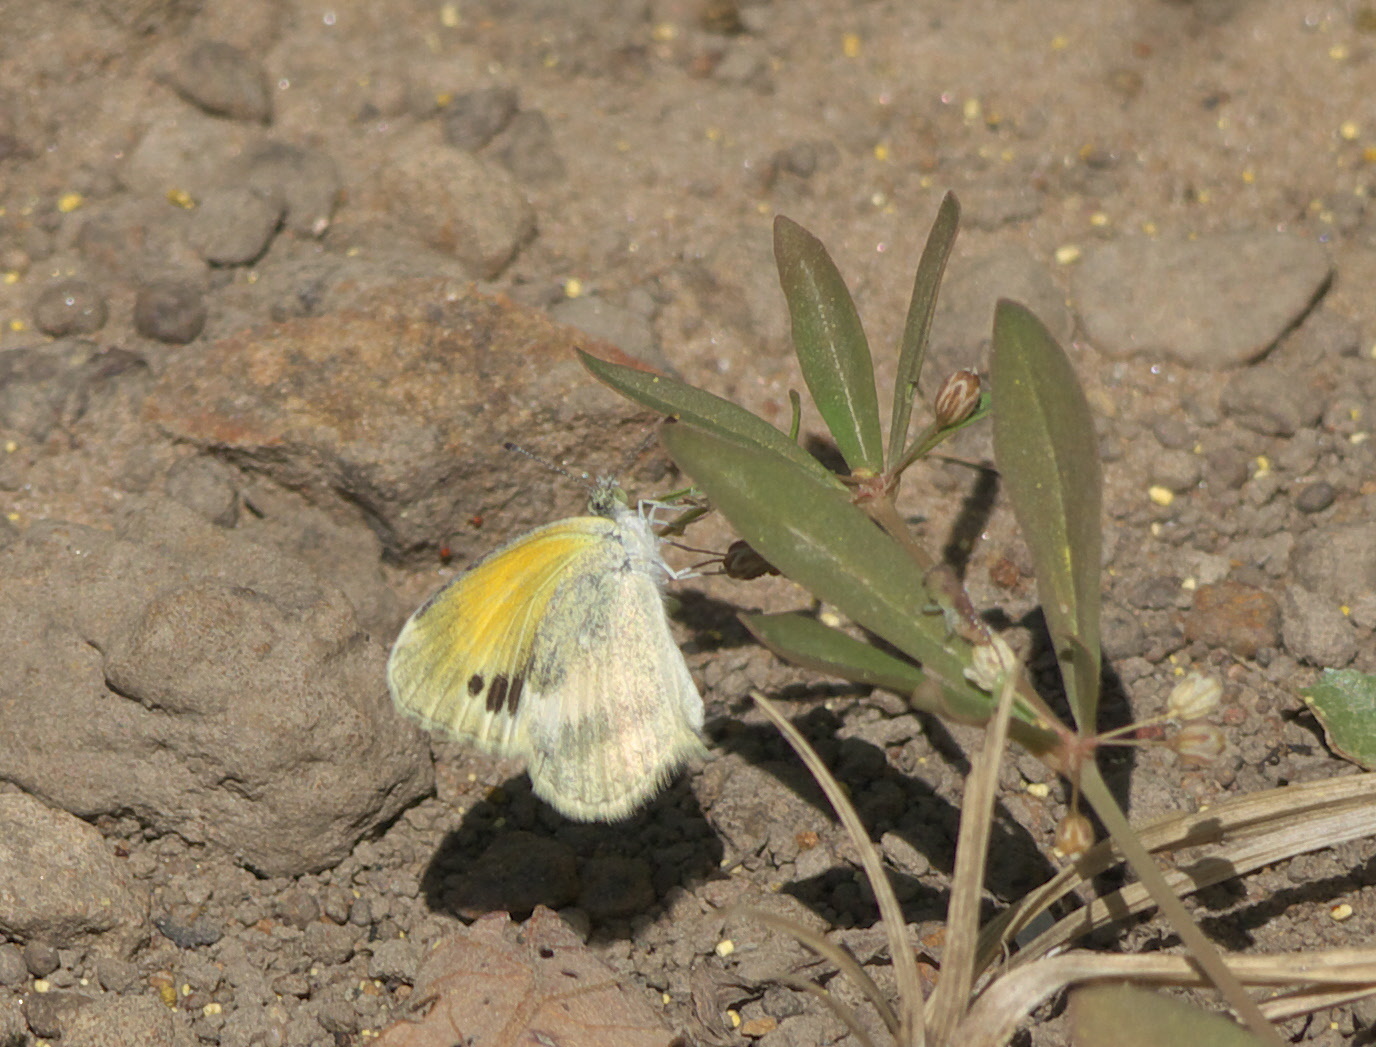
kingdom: Animalia
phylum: Arthropoda
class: Insecta
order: Lepidoptera
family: Pieridae
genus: Nathalis
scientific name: Nathalis iole
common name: Dainty sulphur
